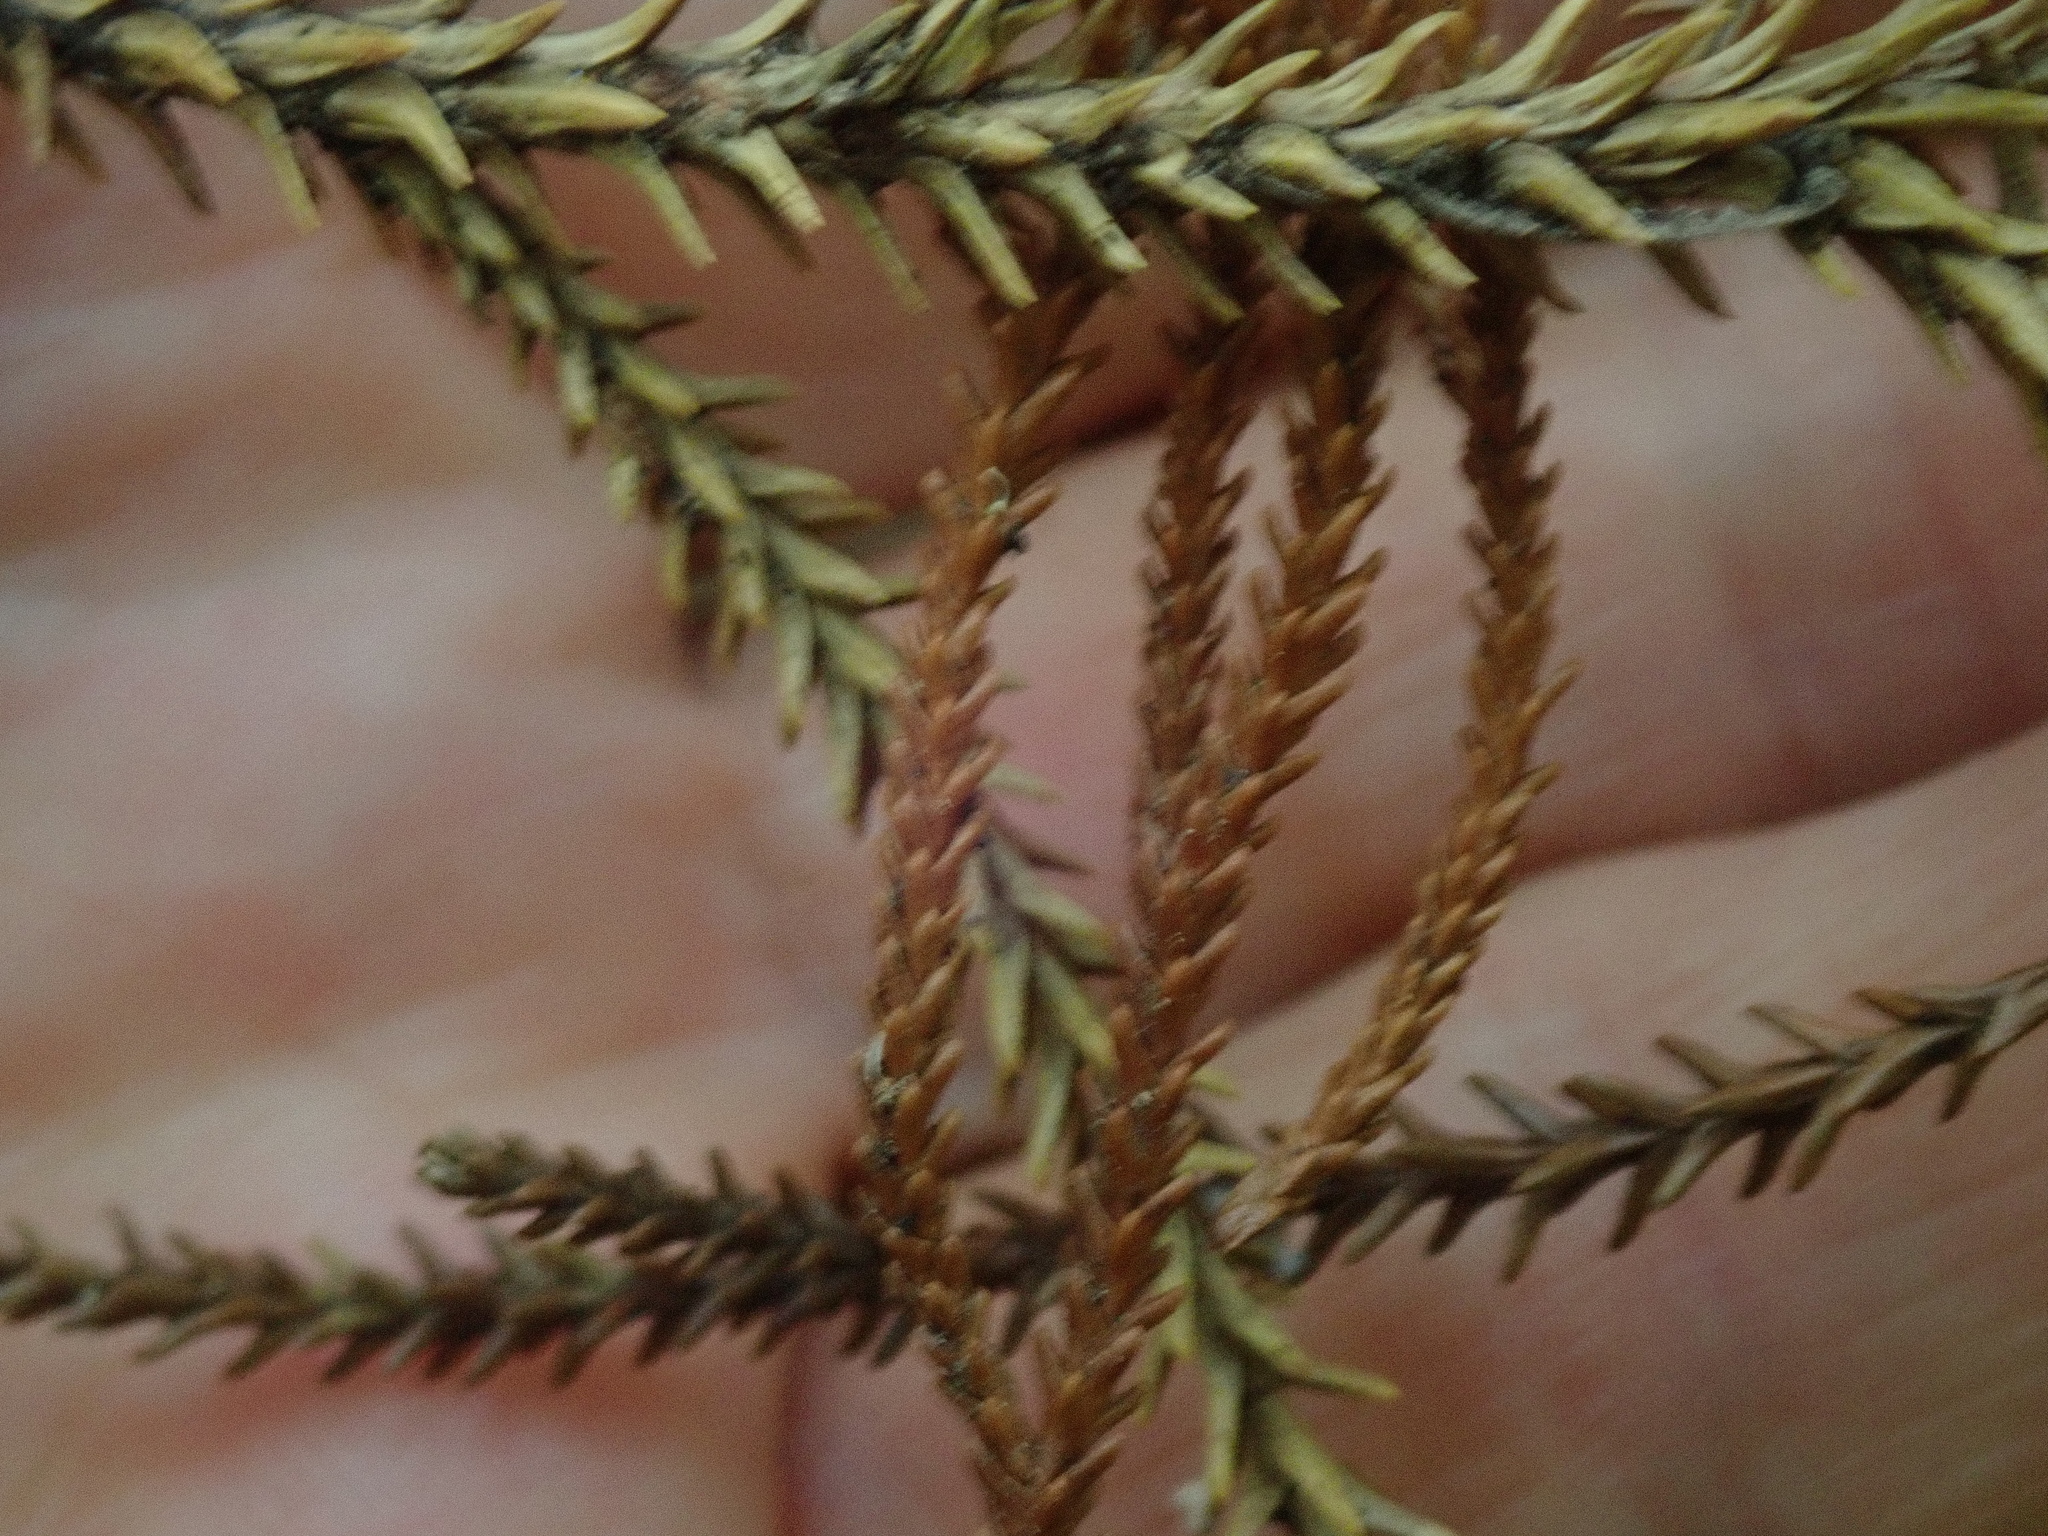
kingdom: Plantae
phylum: Tracheophyta
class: Pinopsida
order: Pinales
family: Podocarpaceae
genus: Dacrydium
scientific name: Dacrydium cupressinum
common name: Red pine
